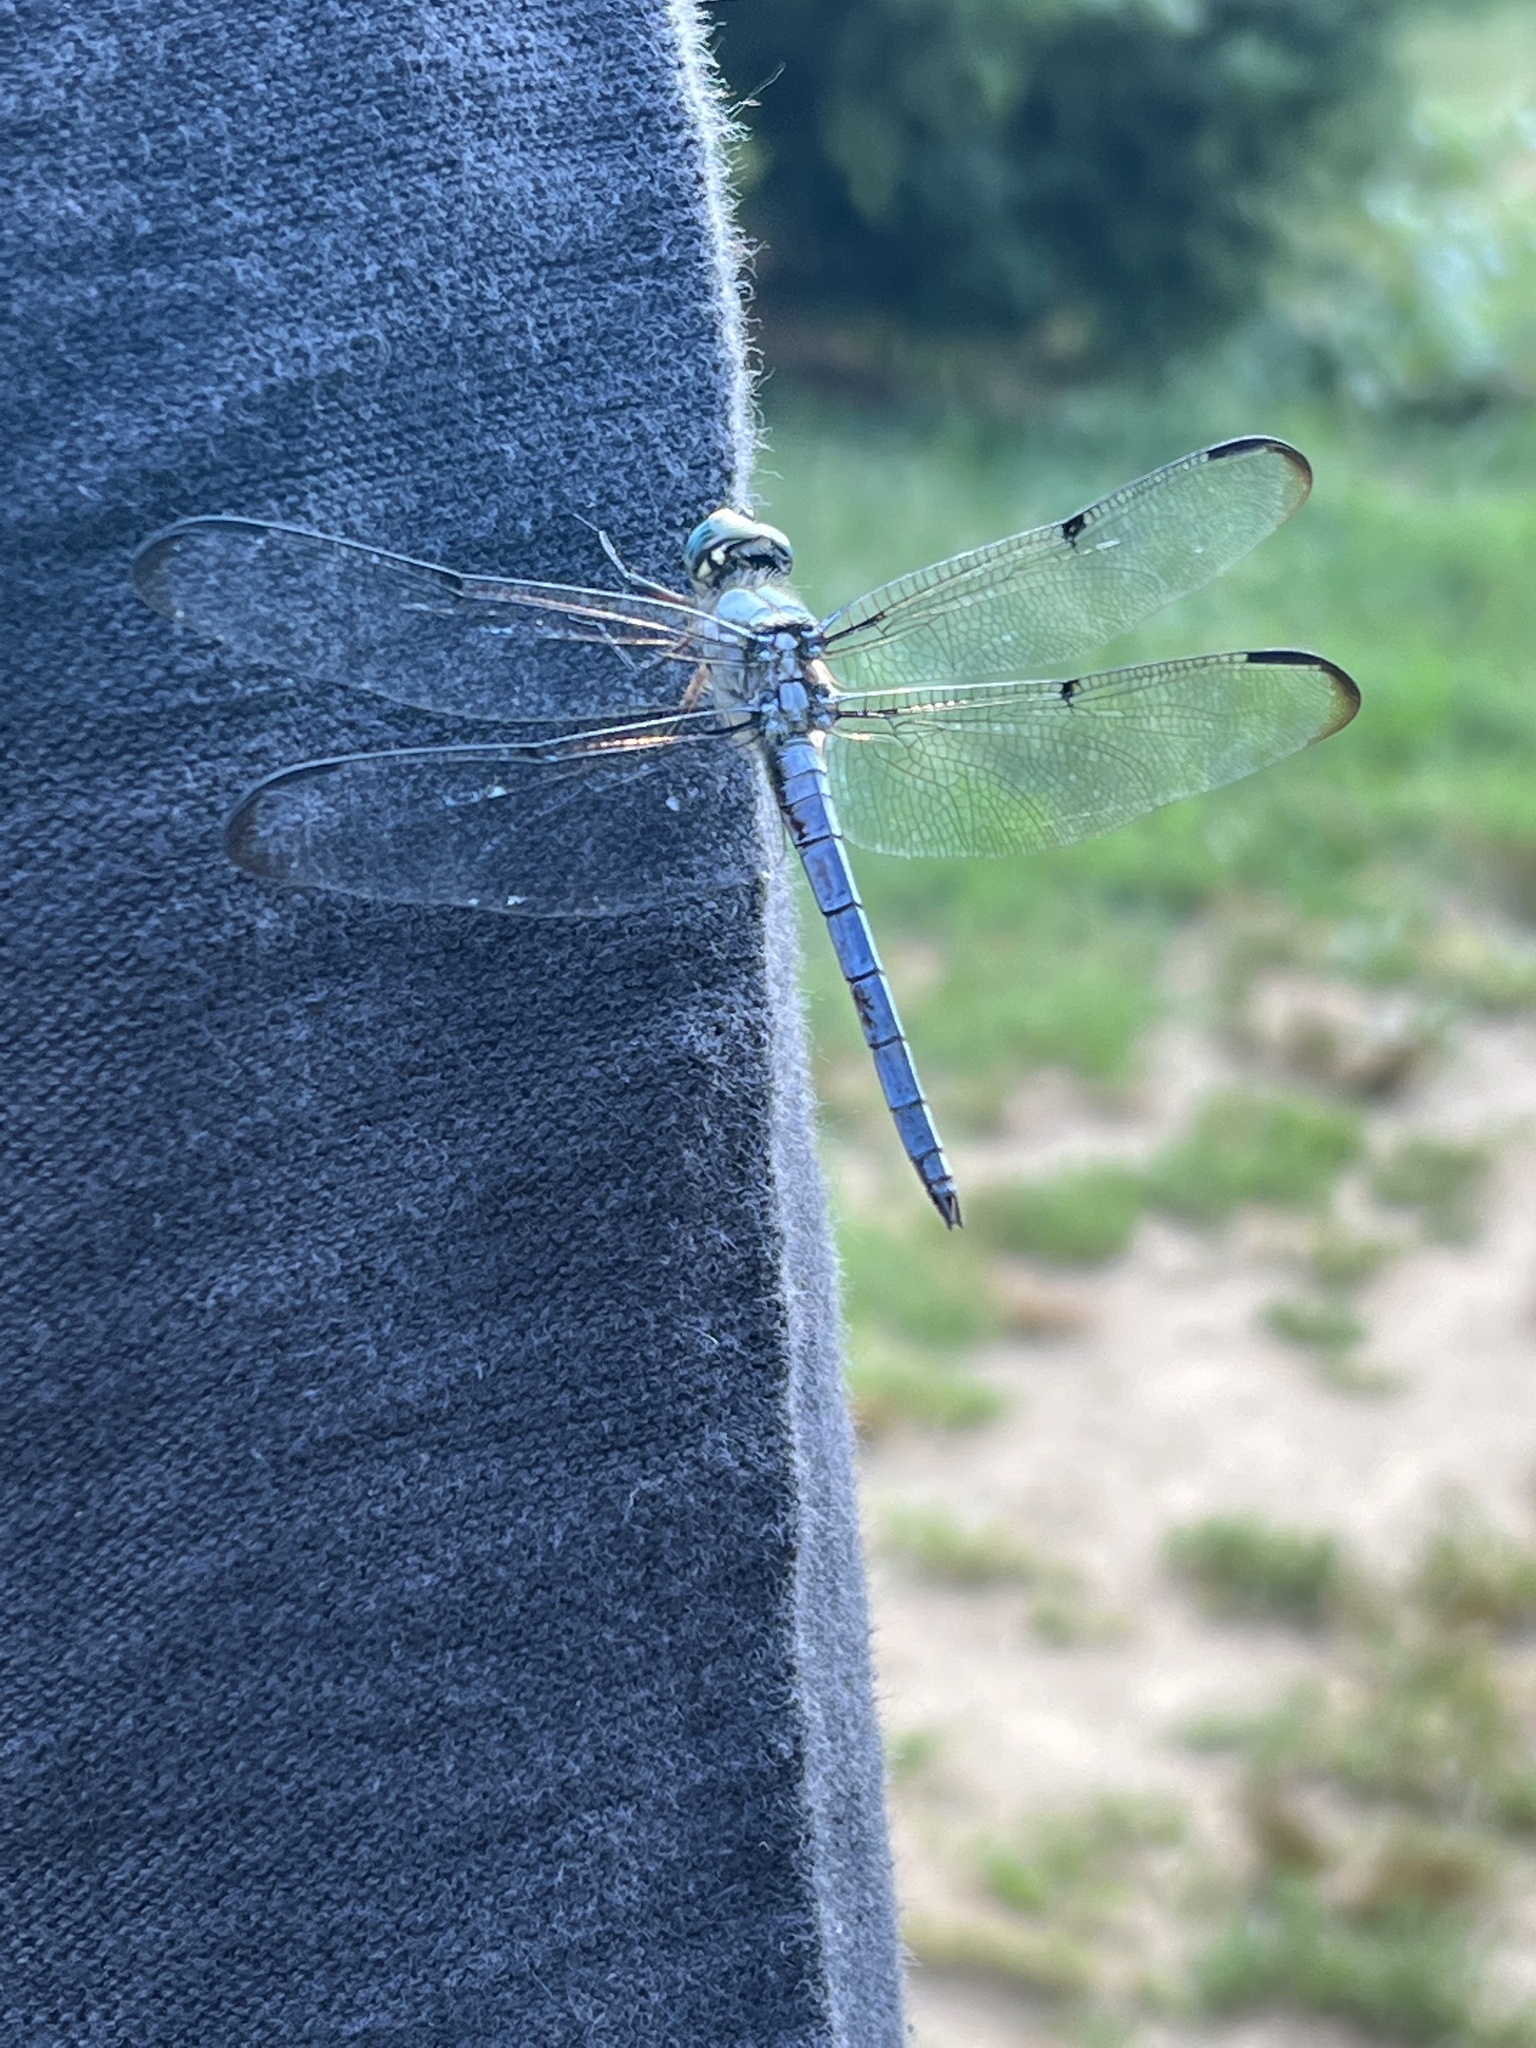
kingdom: Animalia
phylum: Arthropoda
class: Insecta
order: Odonata
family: Libellulidae
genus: Libellula
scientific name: Libellula vibrans
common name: Great blue skimmer
